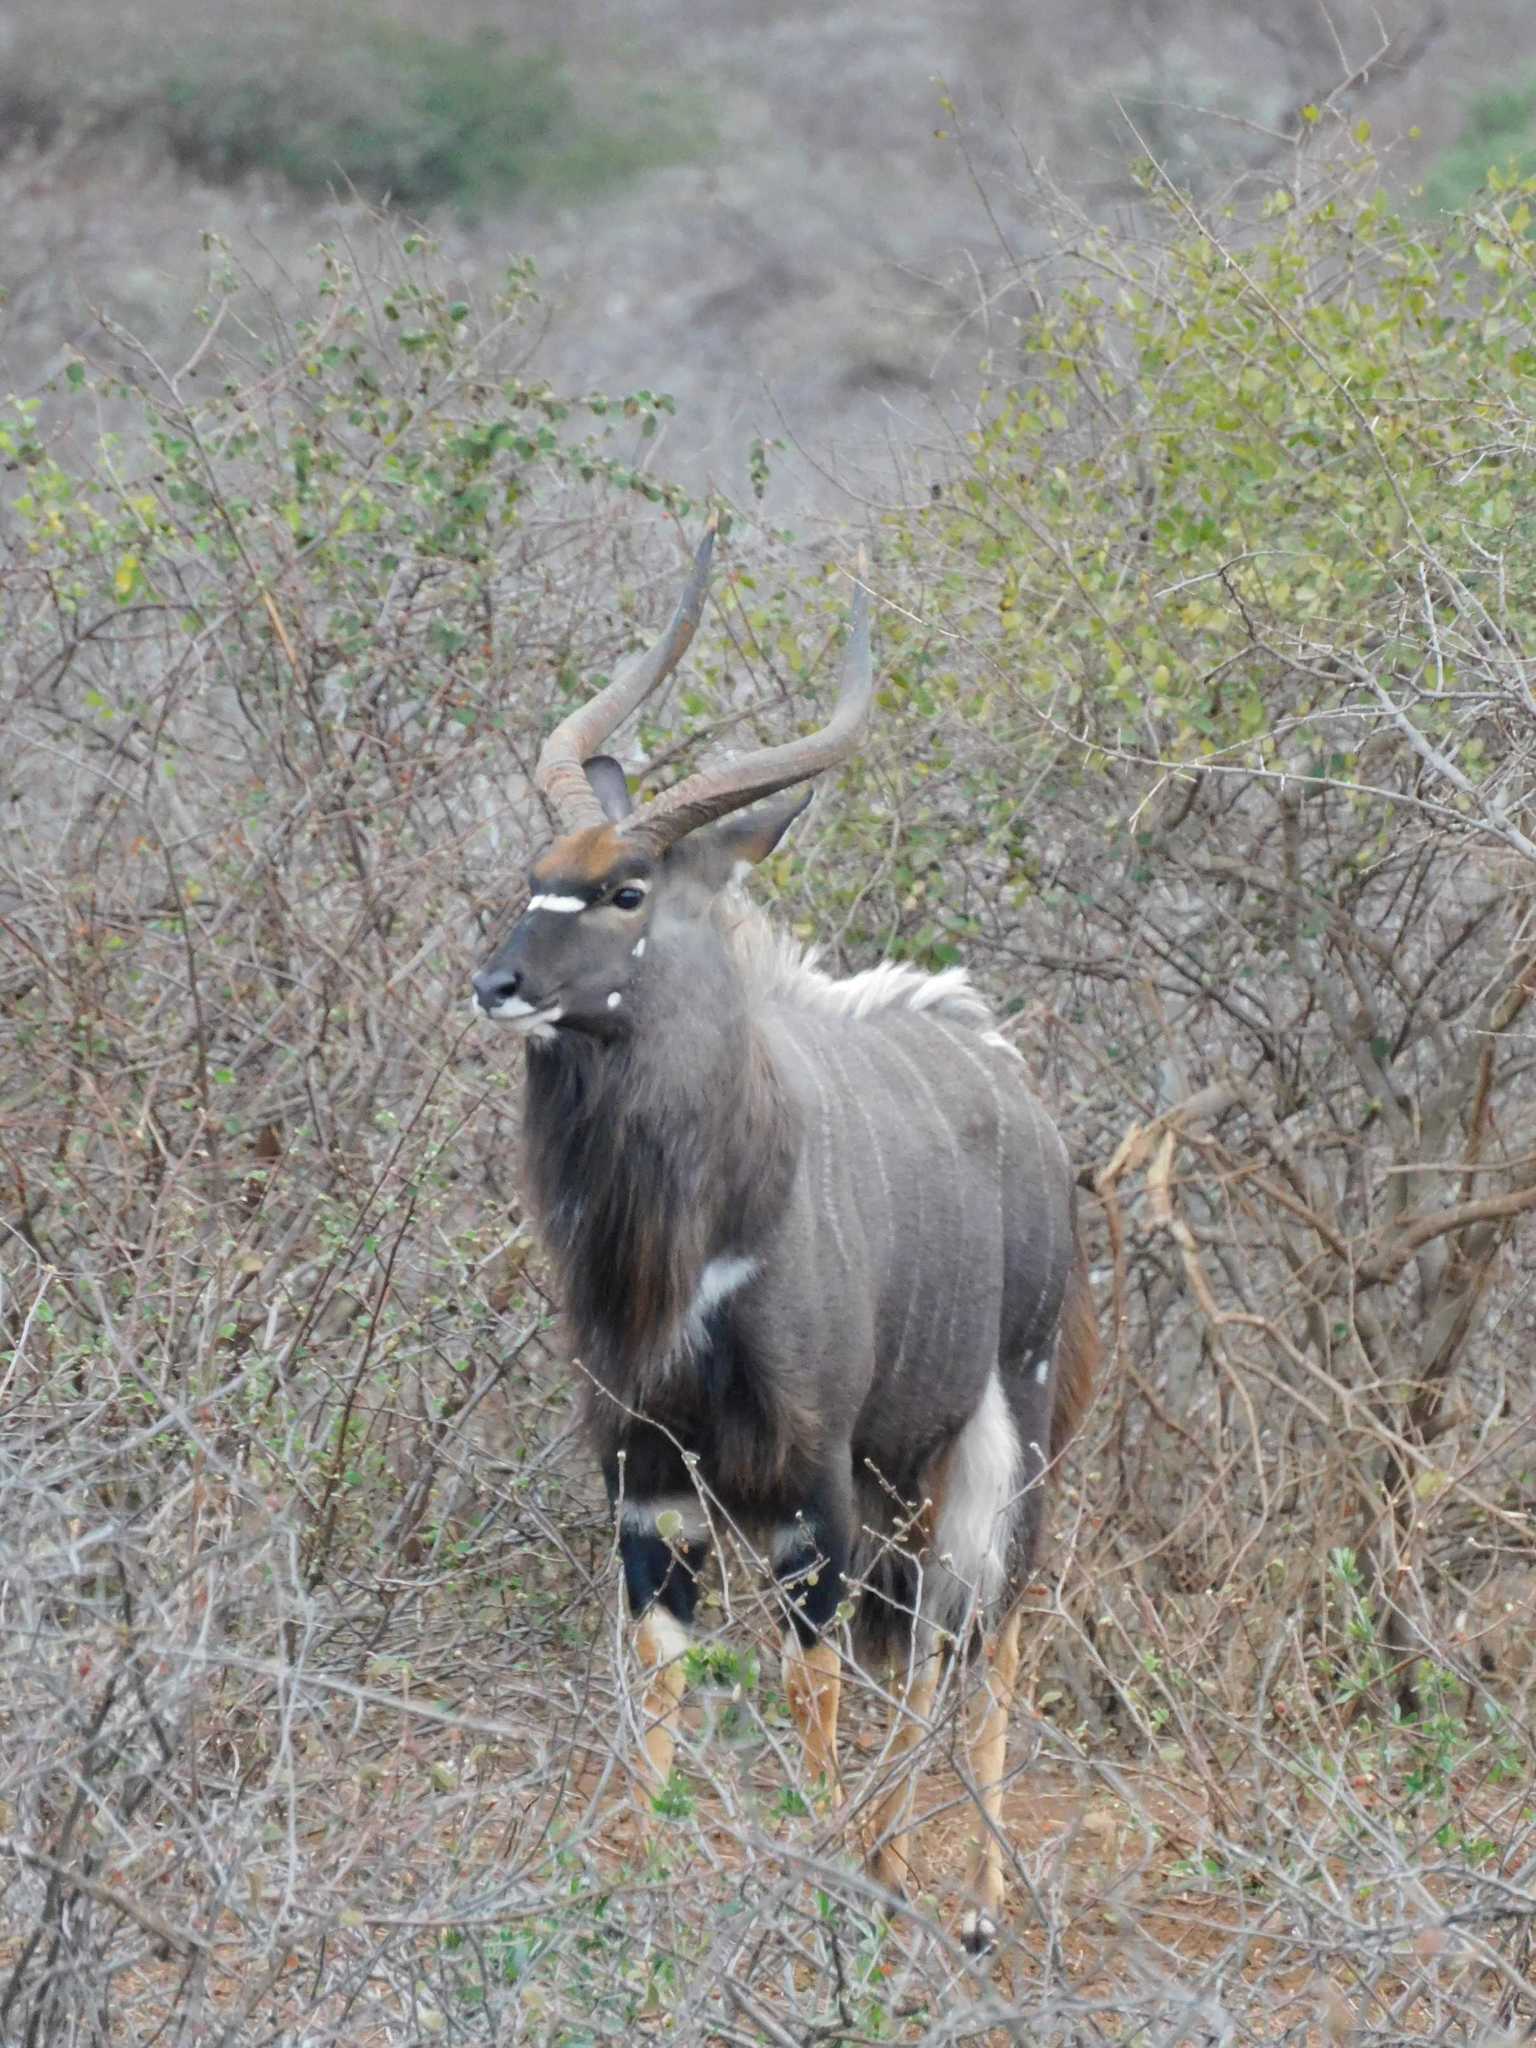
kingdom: Animalia
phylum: Chordata
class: Mammalia
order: Artiodactyla
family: Bovidae
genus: Tragelaphus
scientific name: Tragelaphus angasii
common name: Nyala
